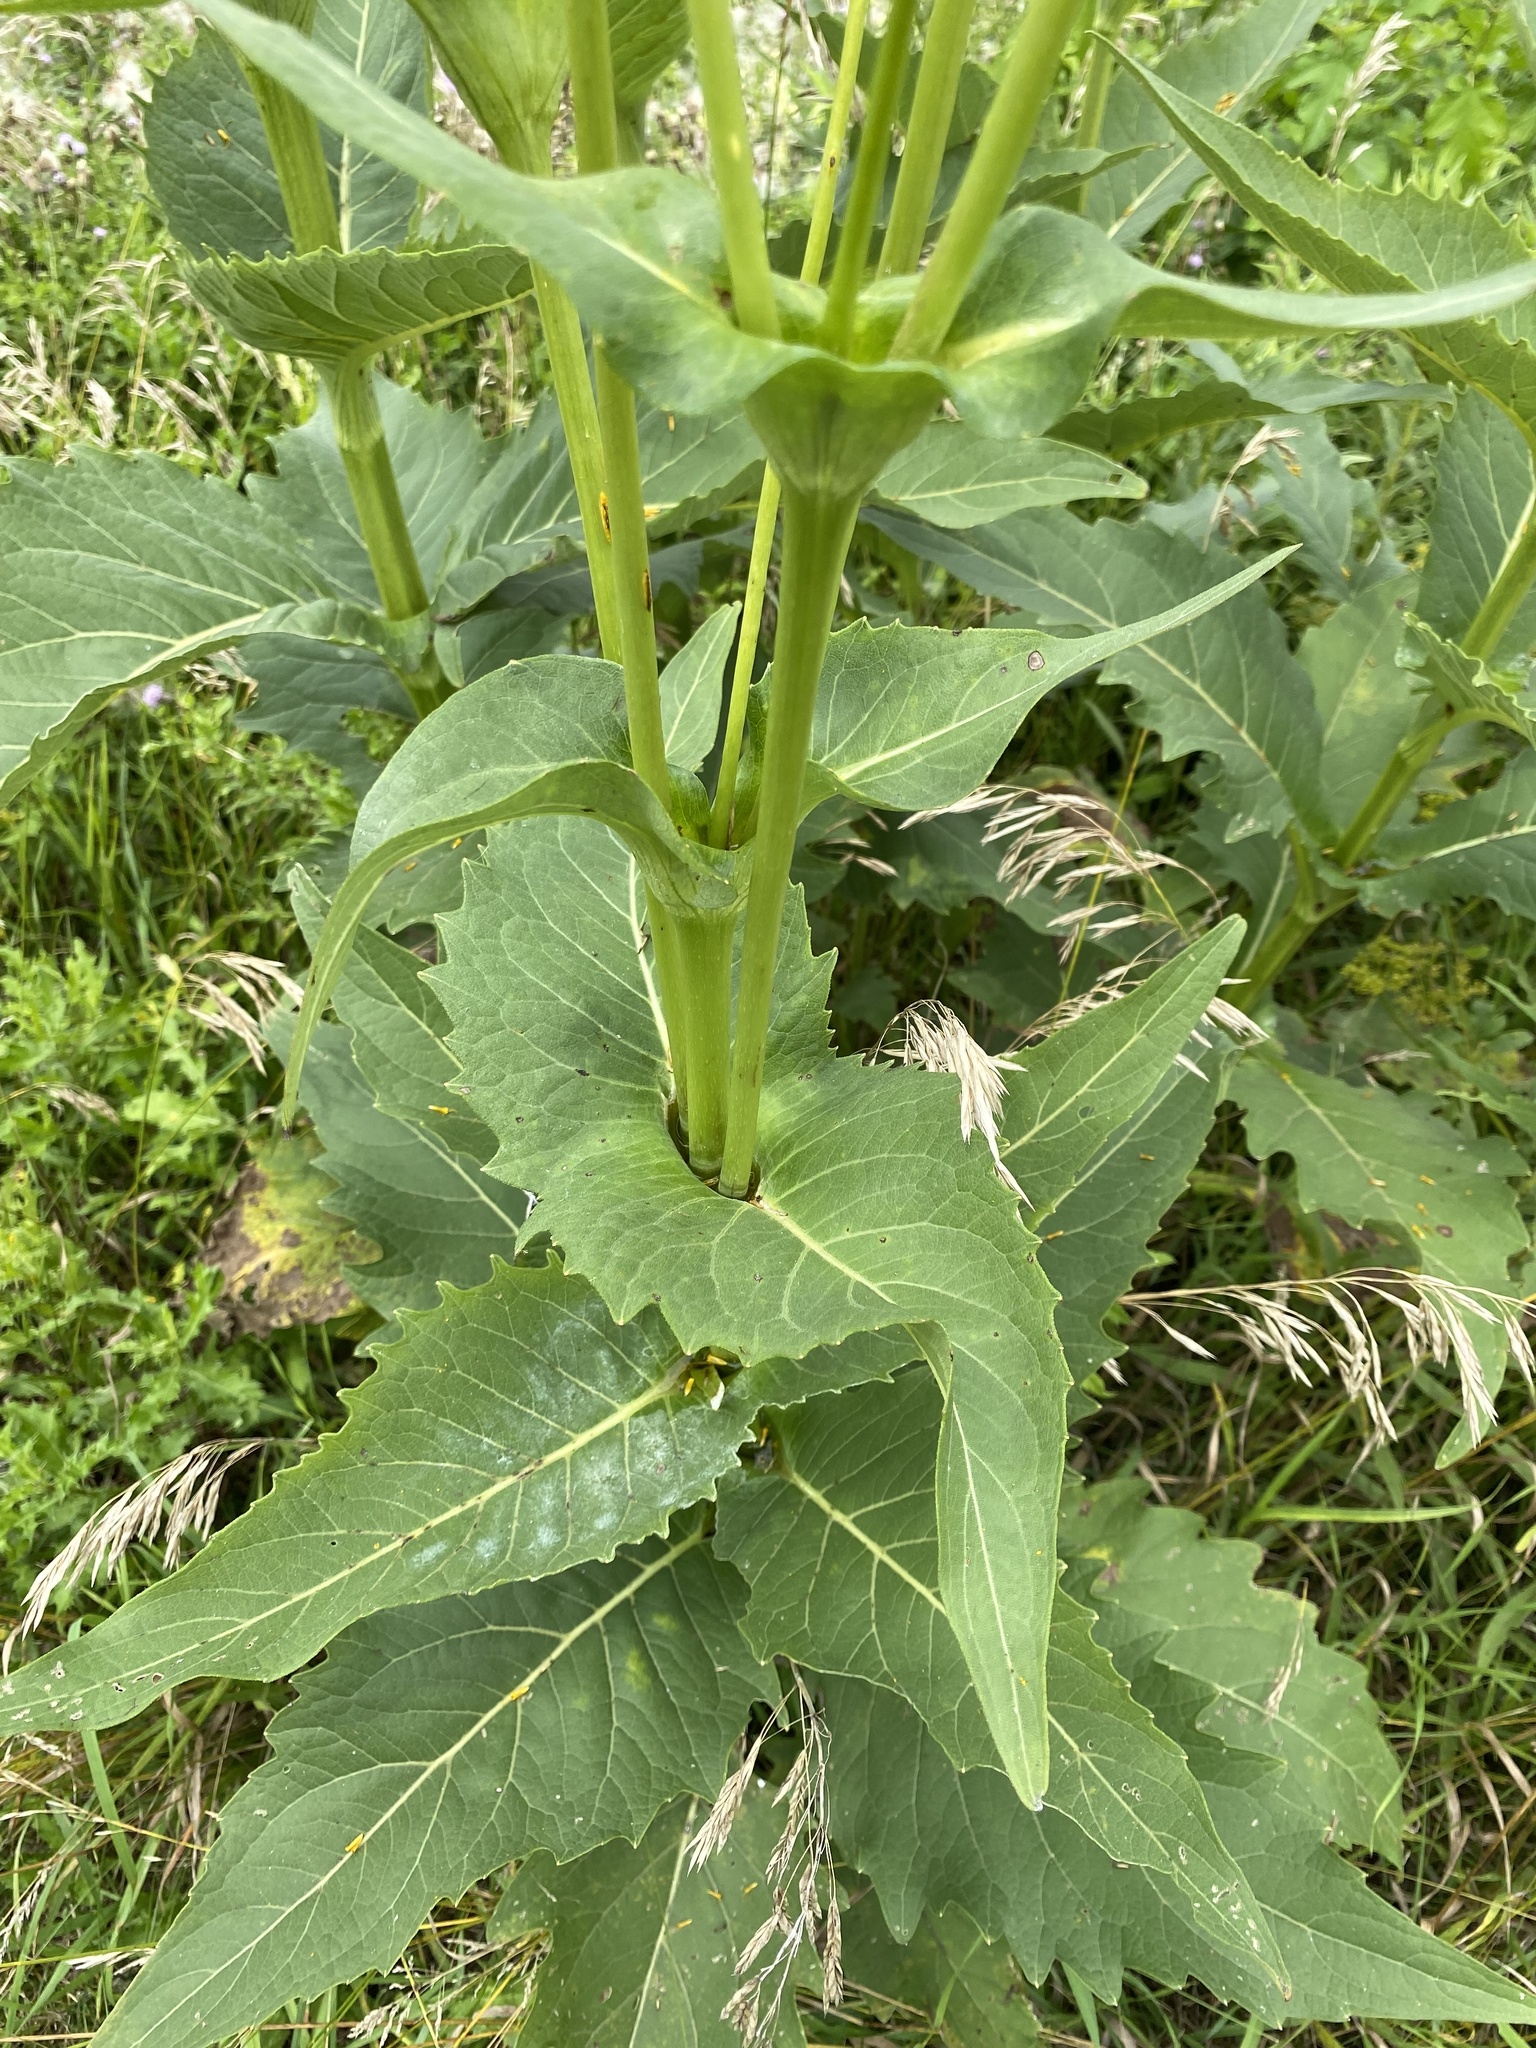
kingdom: Plantae
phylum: Tracheophyta
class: Magnoliopsida
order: Asterales
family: Asteraceae
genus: Silphium
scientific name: Silphium perfoliatum
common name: Cup-plant
